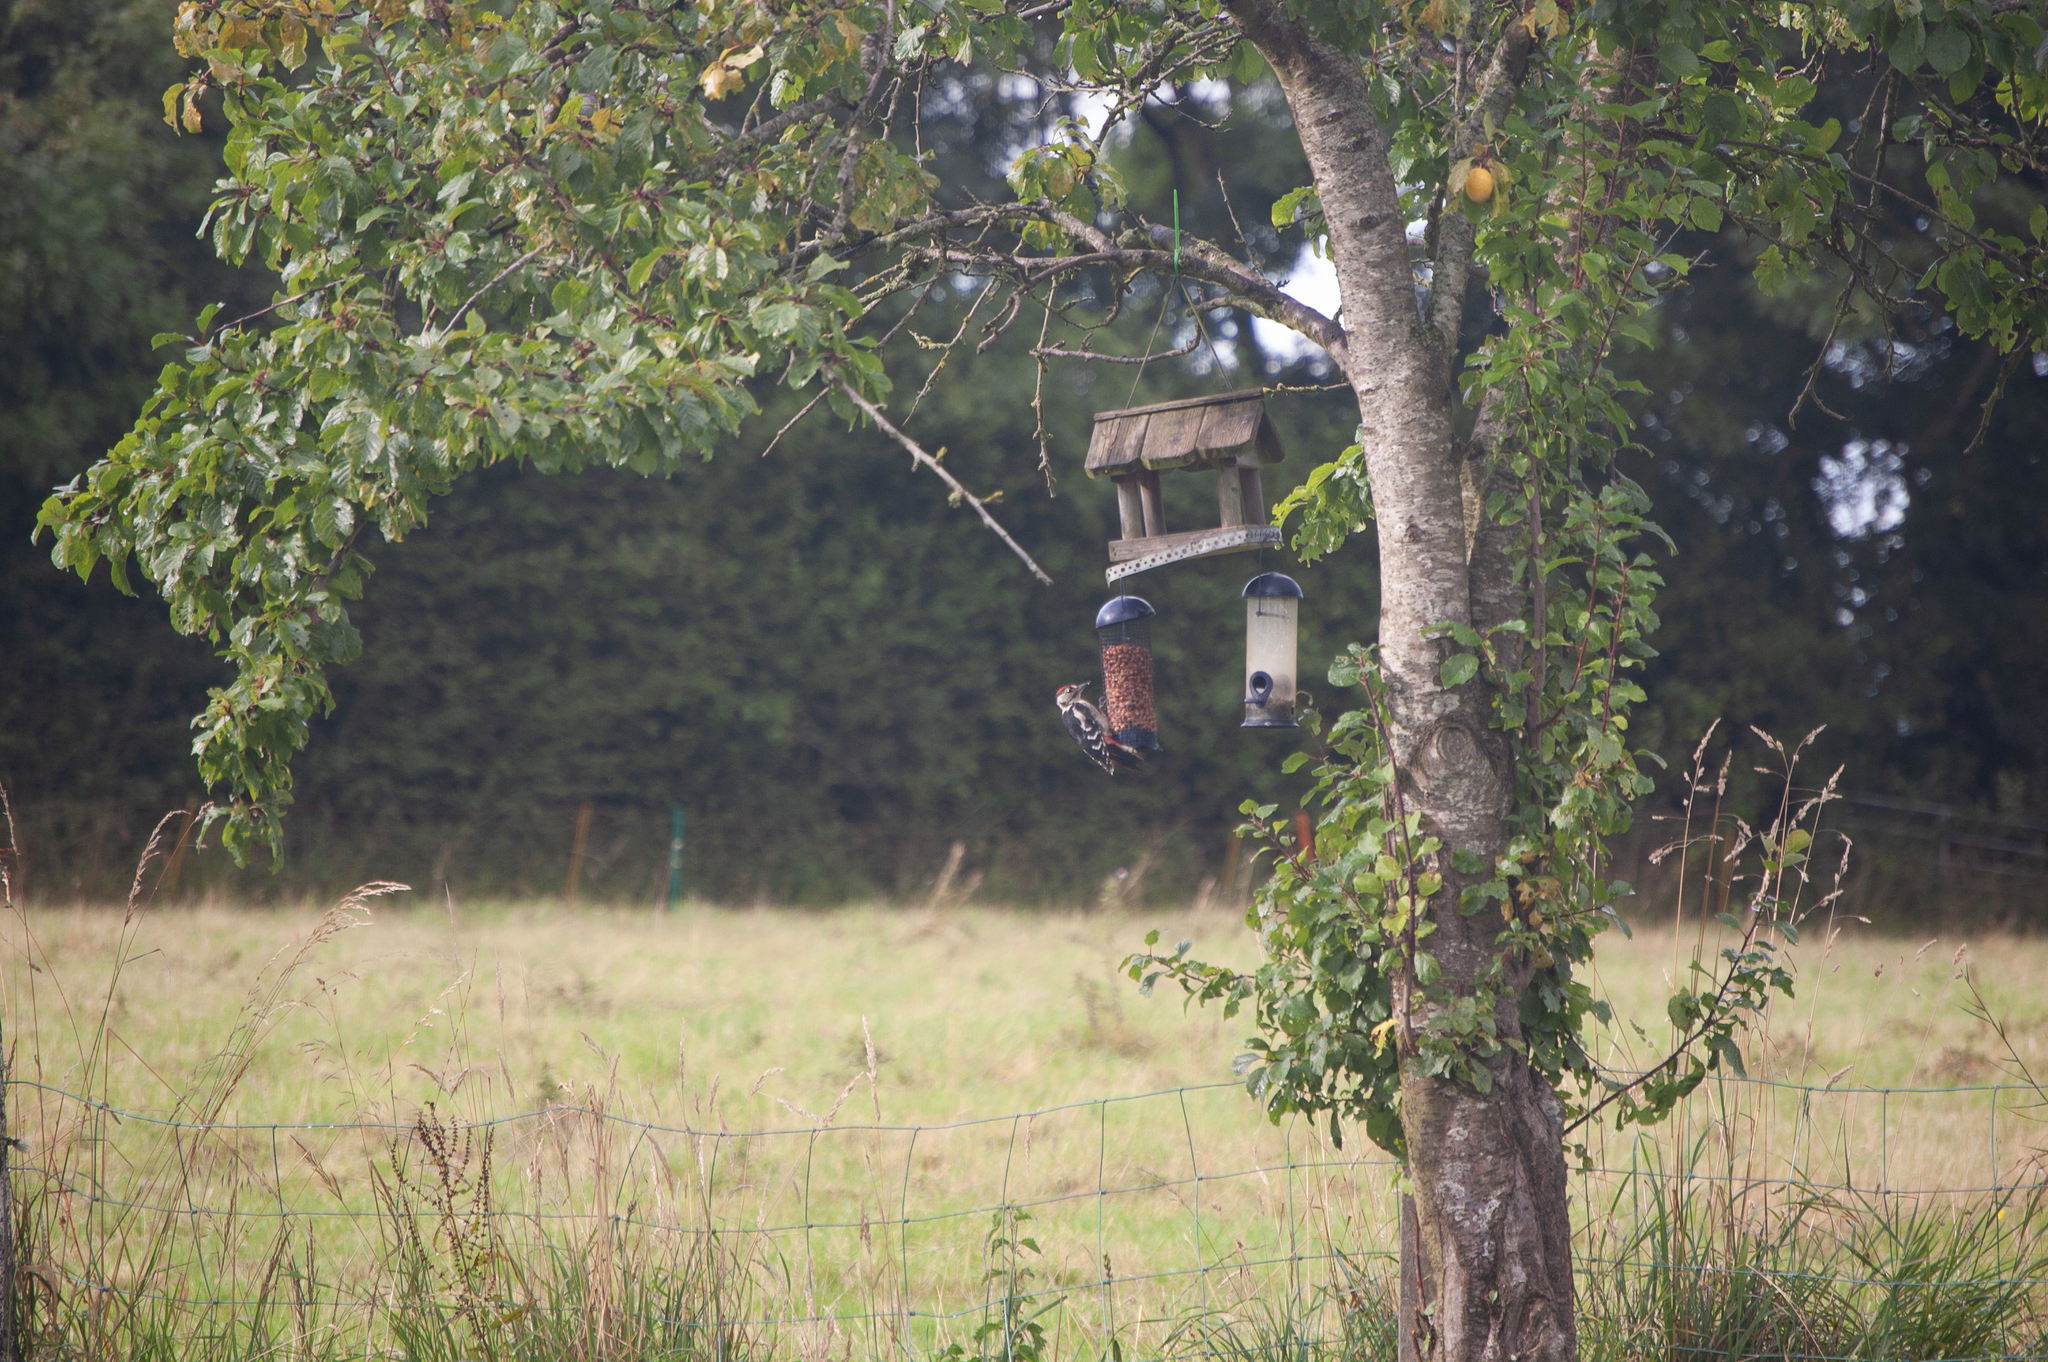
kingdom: Animalia
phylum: Chordata
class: Aves
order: Piciformes
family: Picidae
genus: Dendrocopos
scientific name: Dendrocopos major
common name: Great spotted woodpecker
